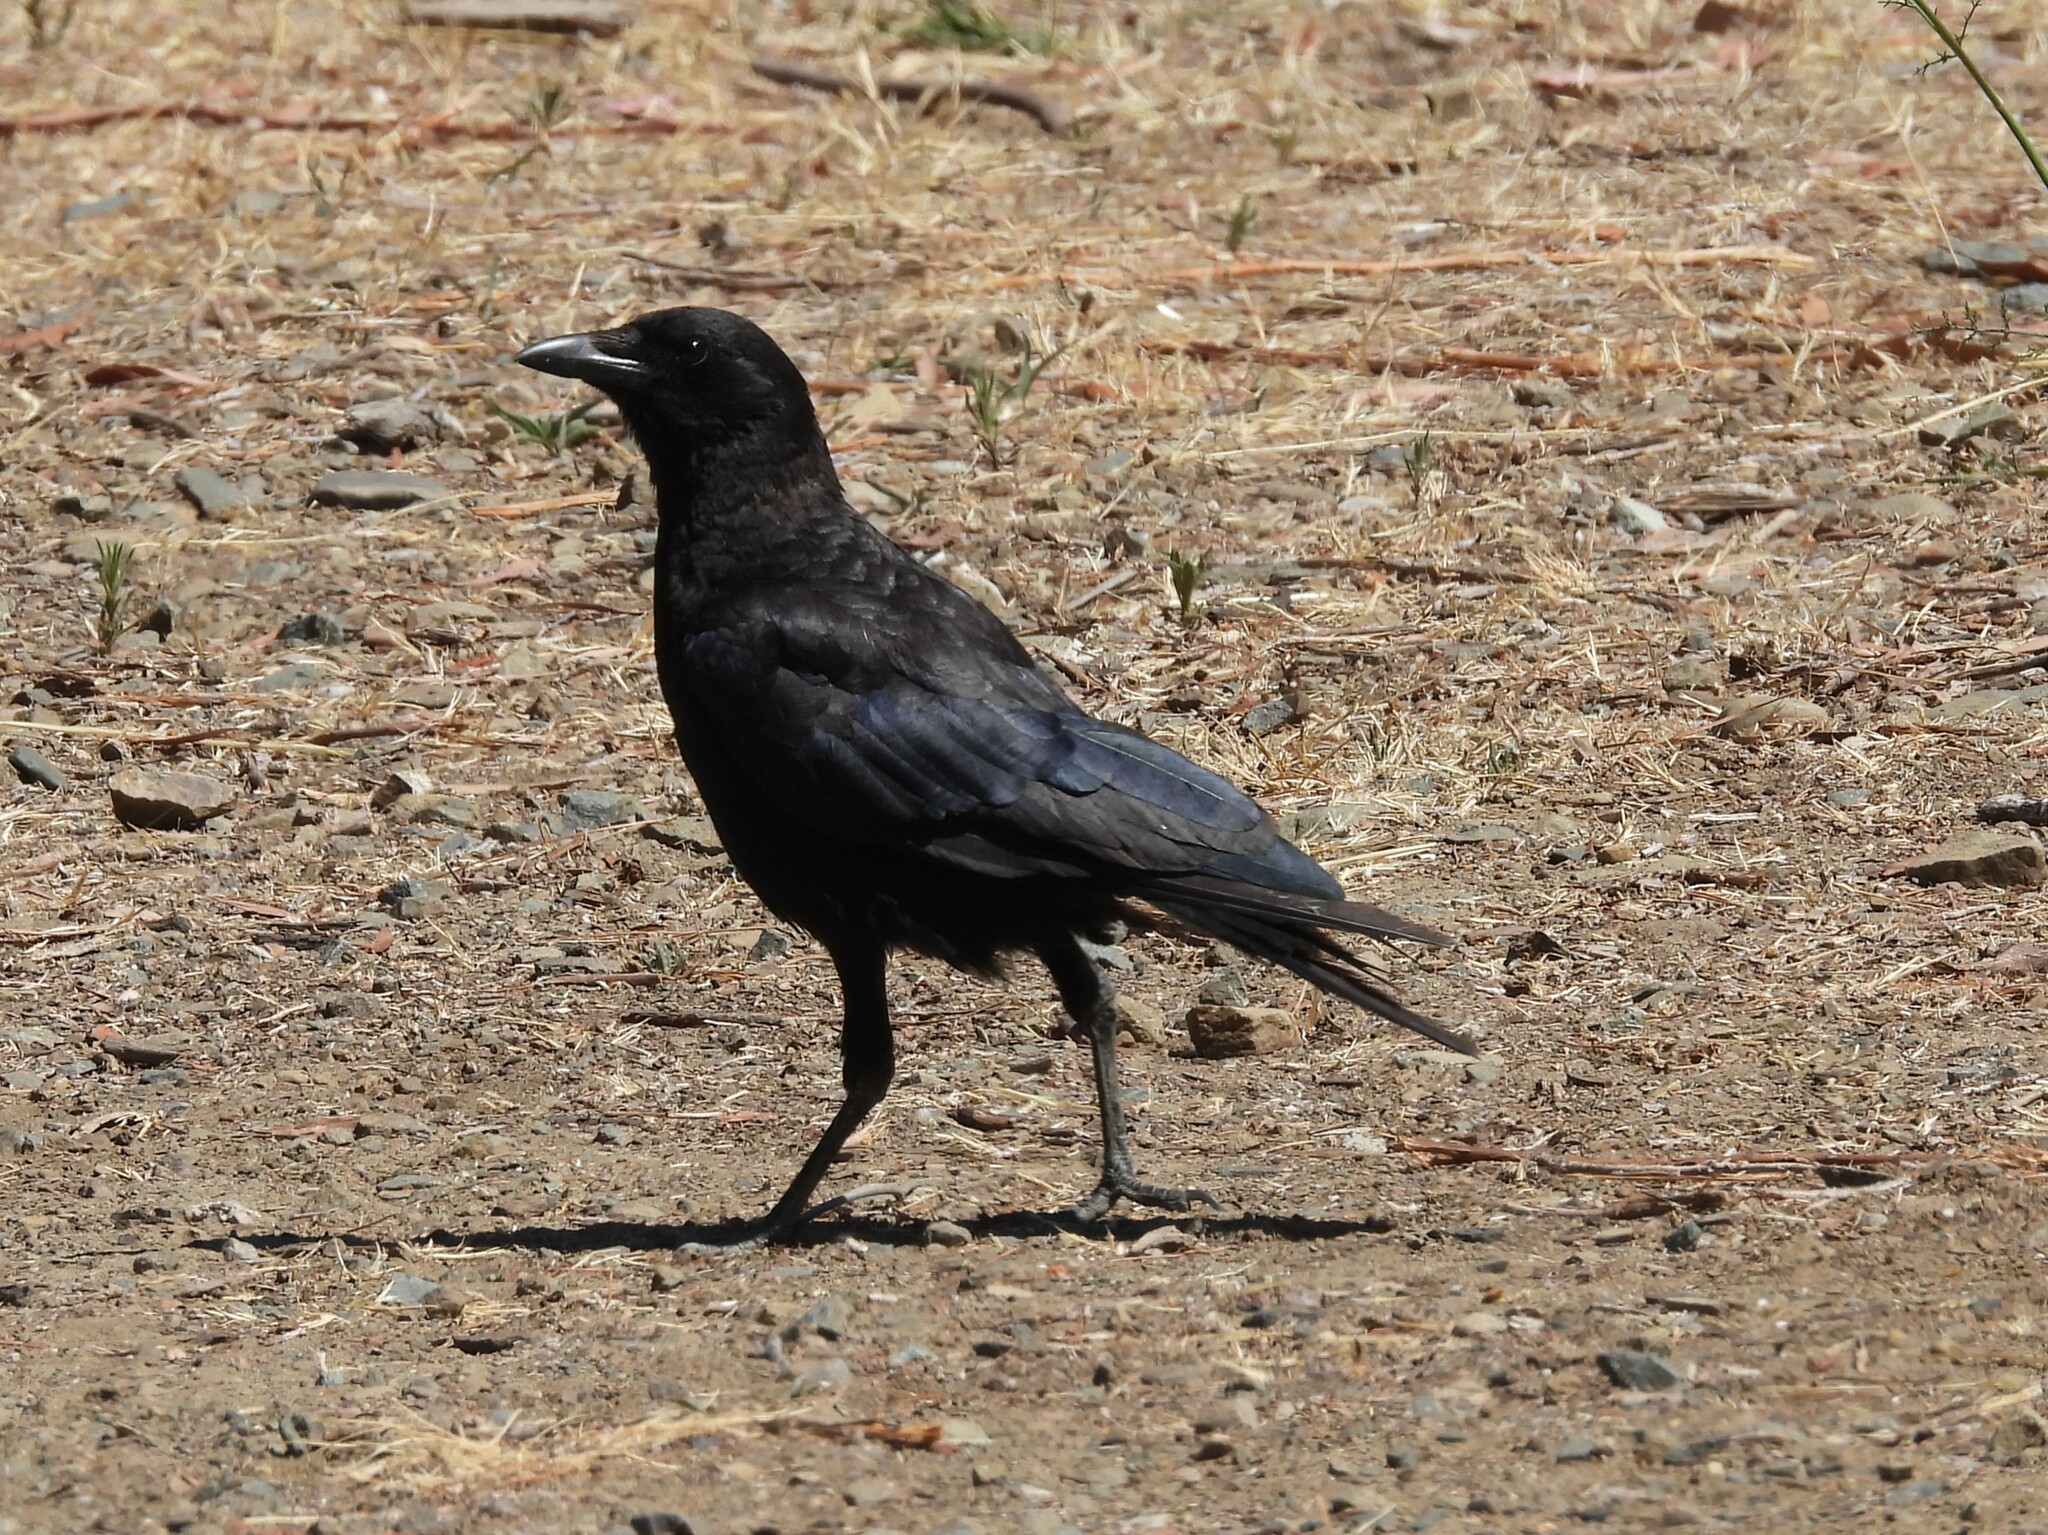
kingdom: Animalia
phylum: Chordata
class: Aves
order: Passeriformes
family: Corvidae
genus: Corvus
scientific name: Corvus brachyrhynchos
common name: American crow
